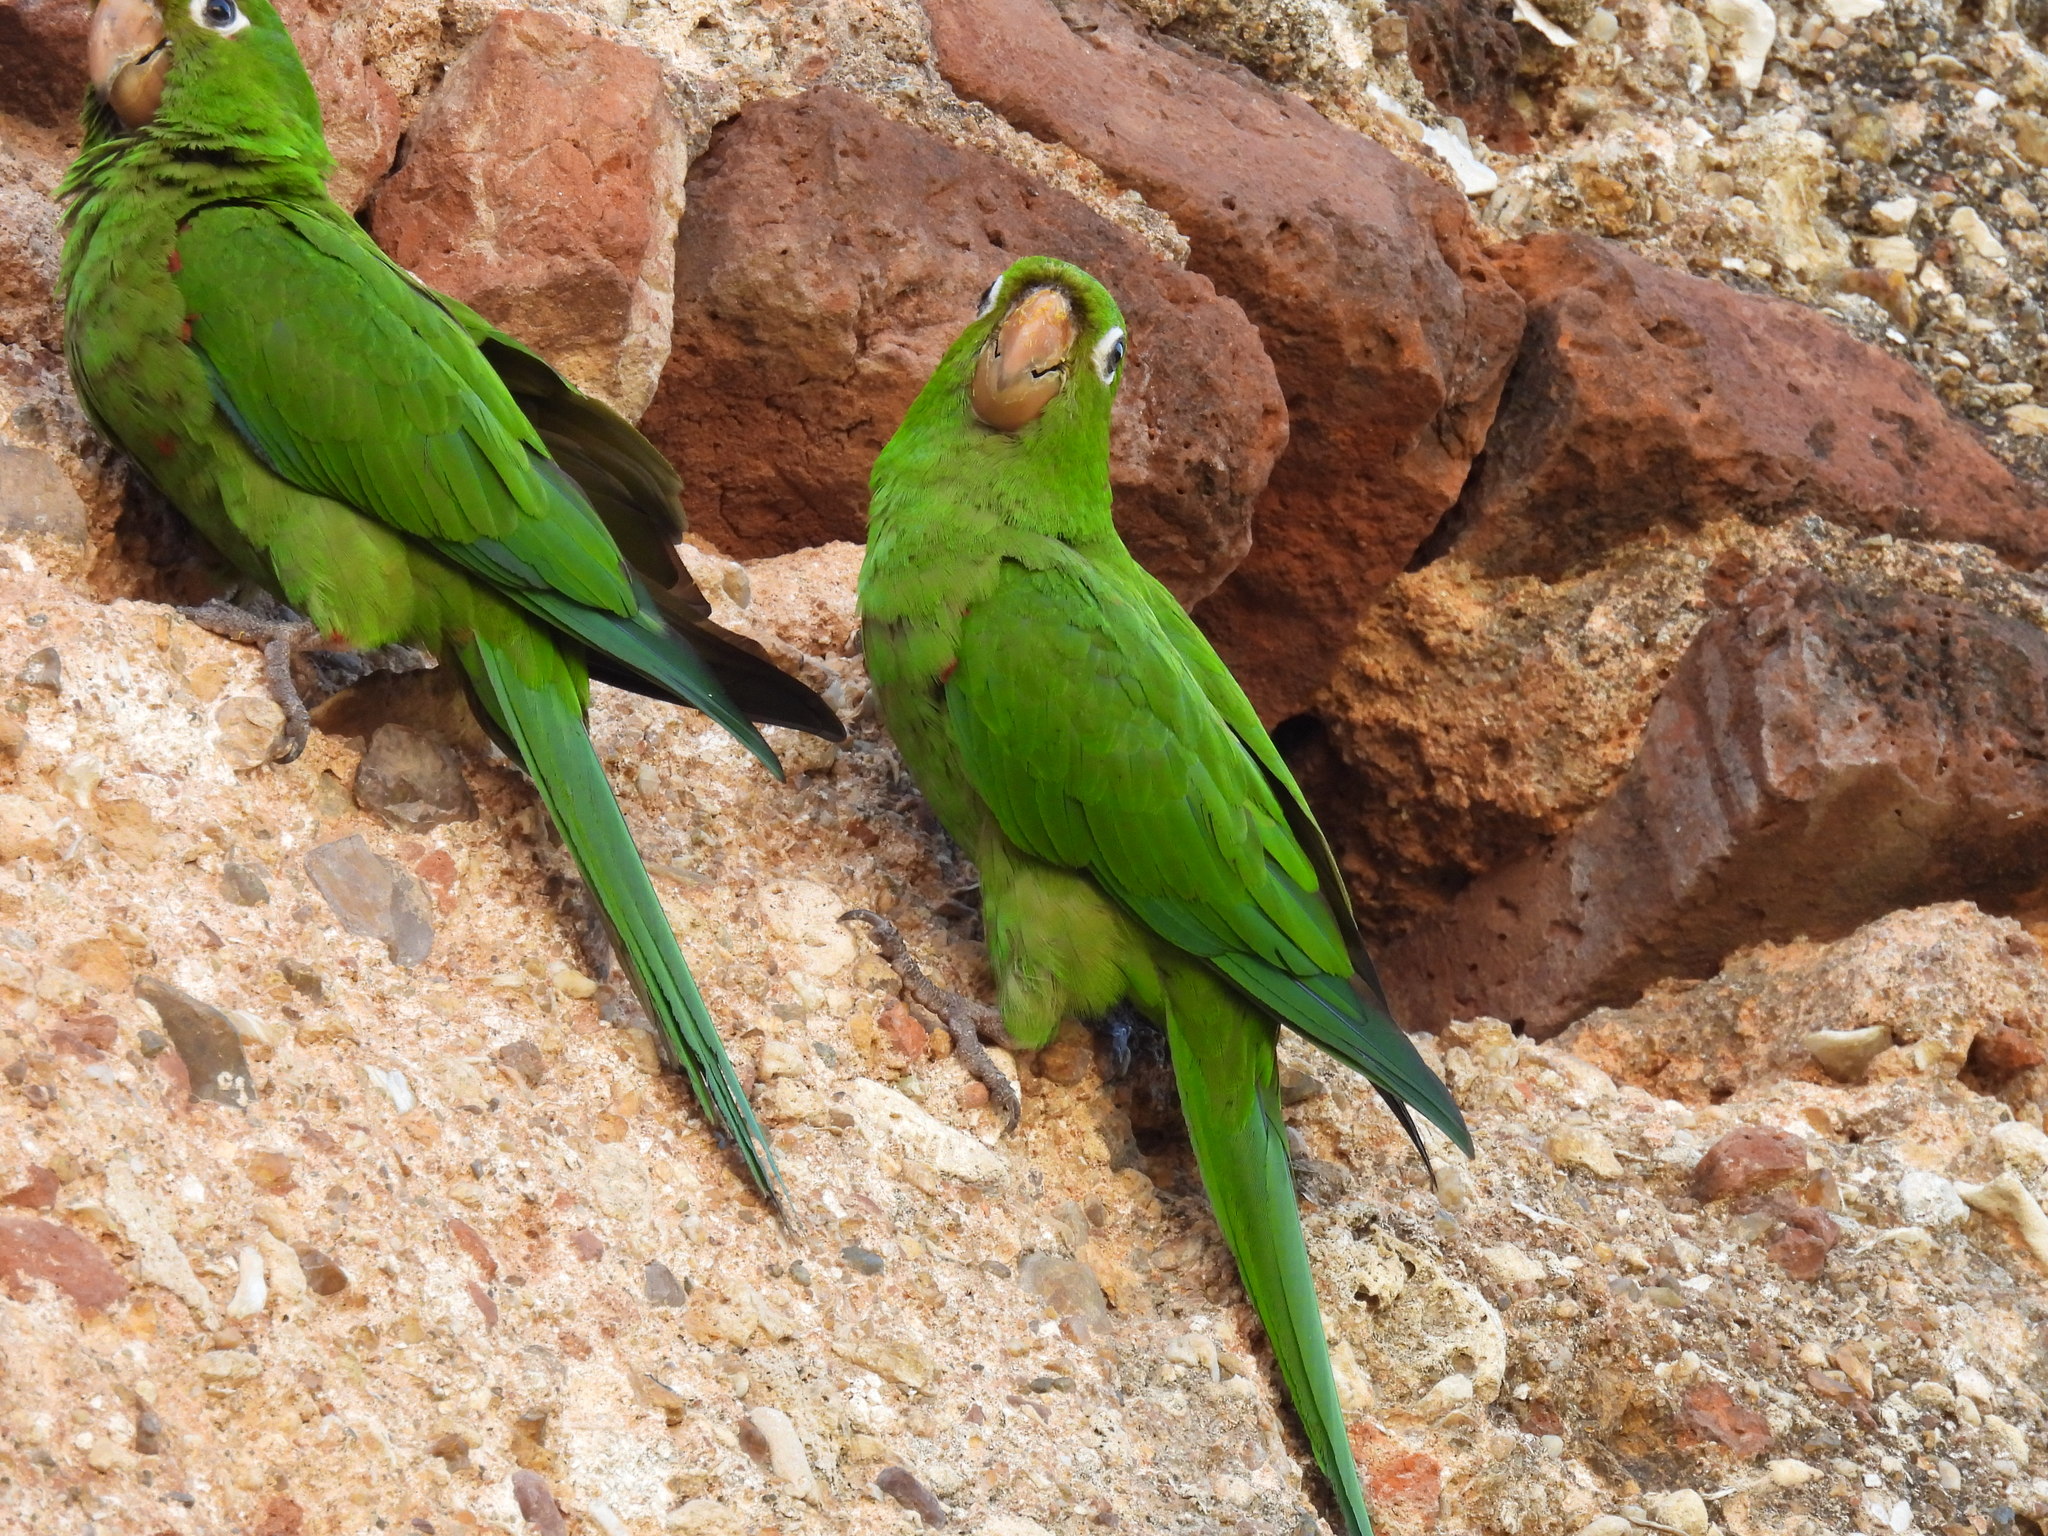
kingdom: Animalia
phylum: Chordata
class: Aves
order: Psittaciformes
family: Psittacidae
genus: Aratinga
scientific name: Aratinga chloroptera
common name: Hispaniolan parakeet
